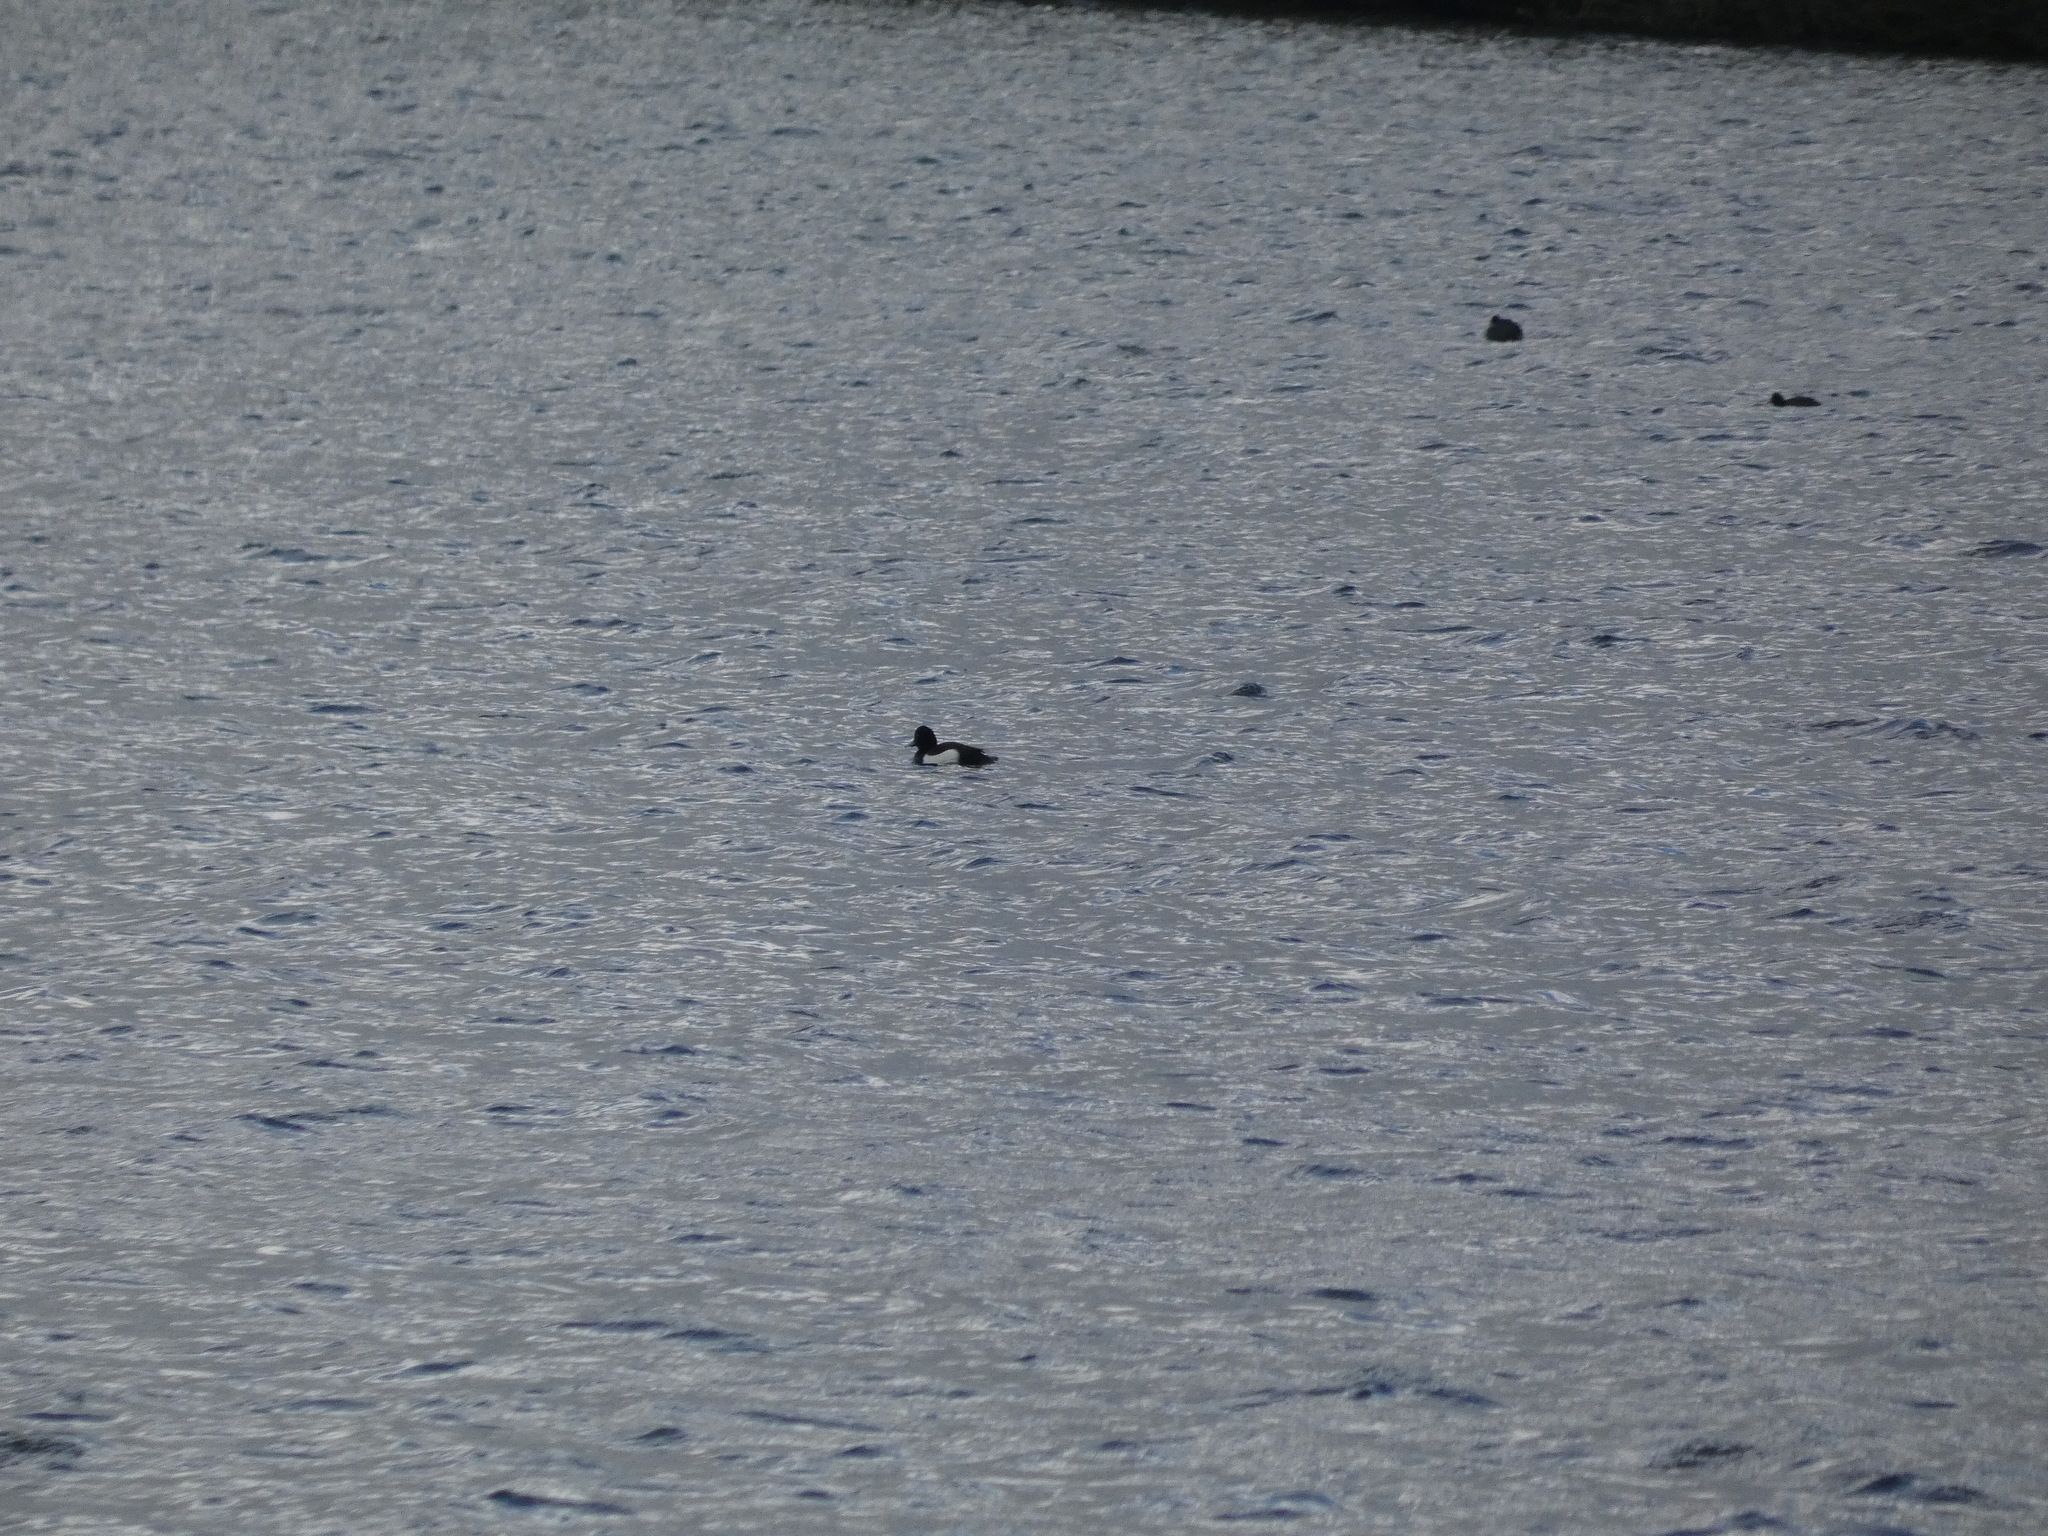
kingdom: Animalia
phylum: Chordata
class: Aves
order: Anseriformes
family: Anatidae
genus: Aythya
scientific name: Aythya fuligula
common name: Tufted duck
